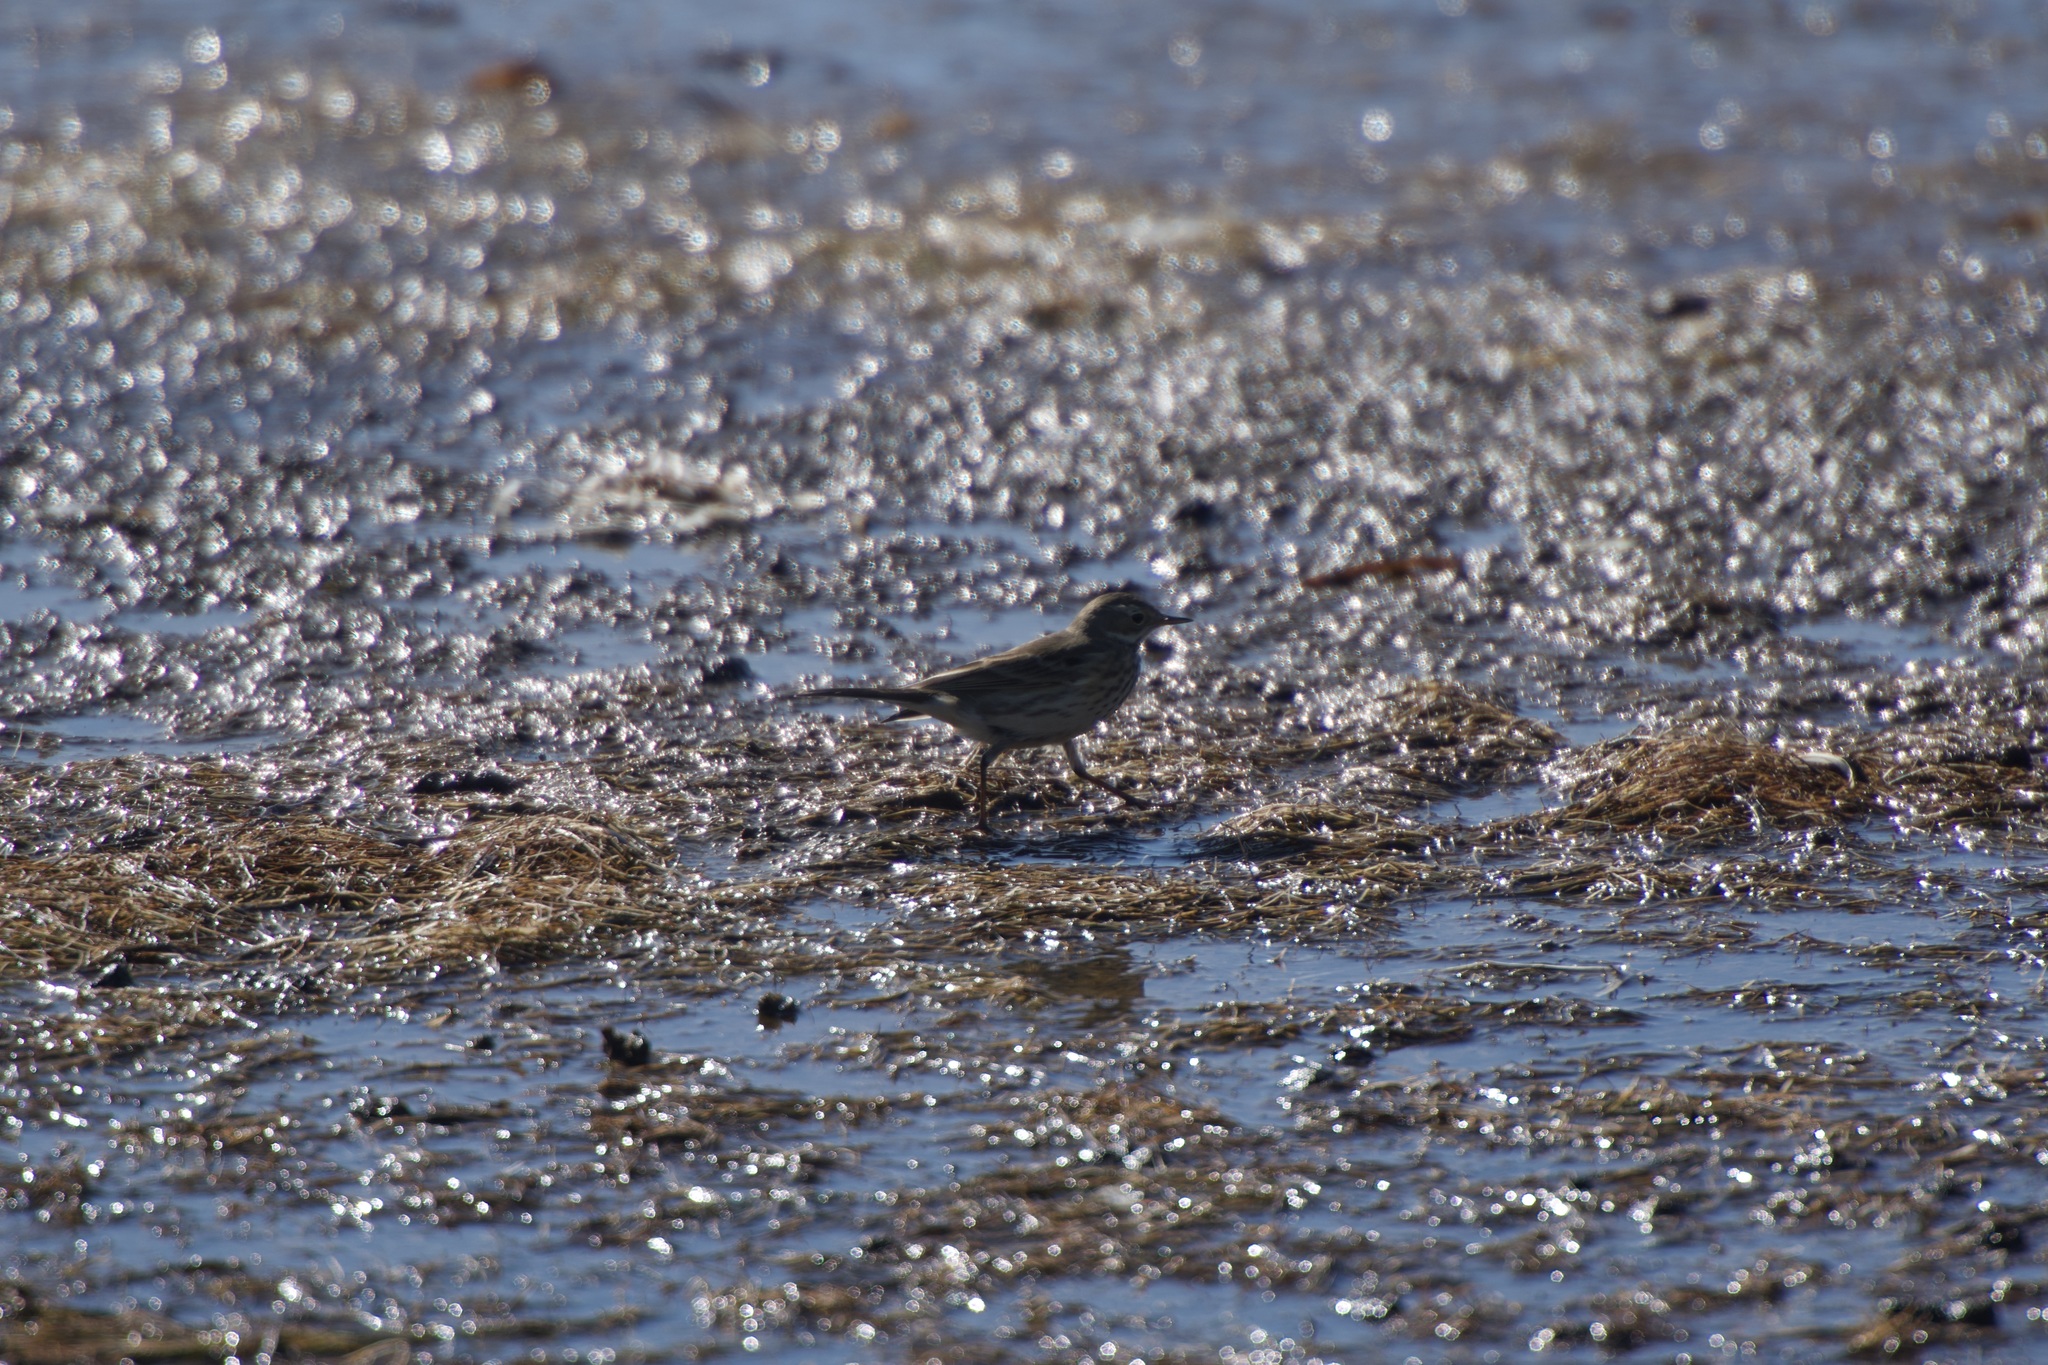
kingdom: Animalia
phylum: Chordata
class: Aves
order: Passeriformes
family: Motacillidae
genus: Anthus
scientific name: Anthus rubescens
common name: Buff-bellied pipit
